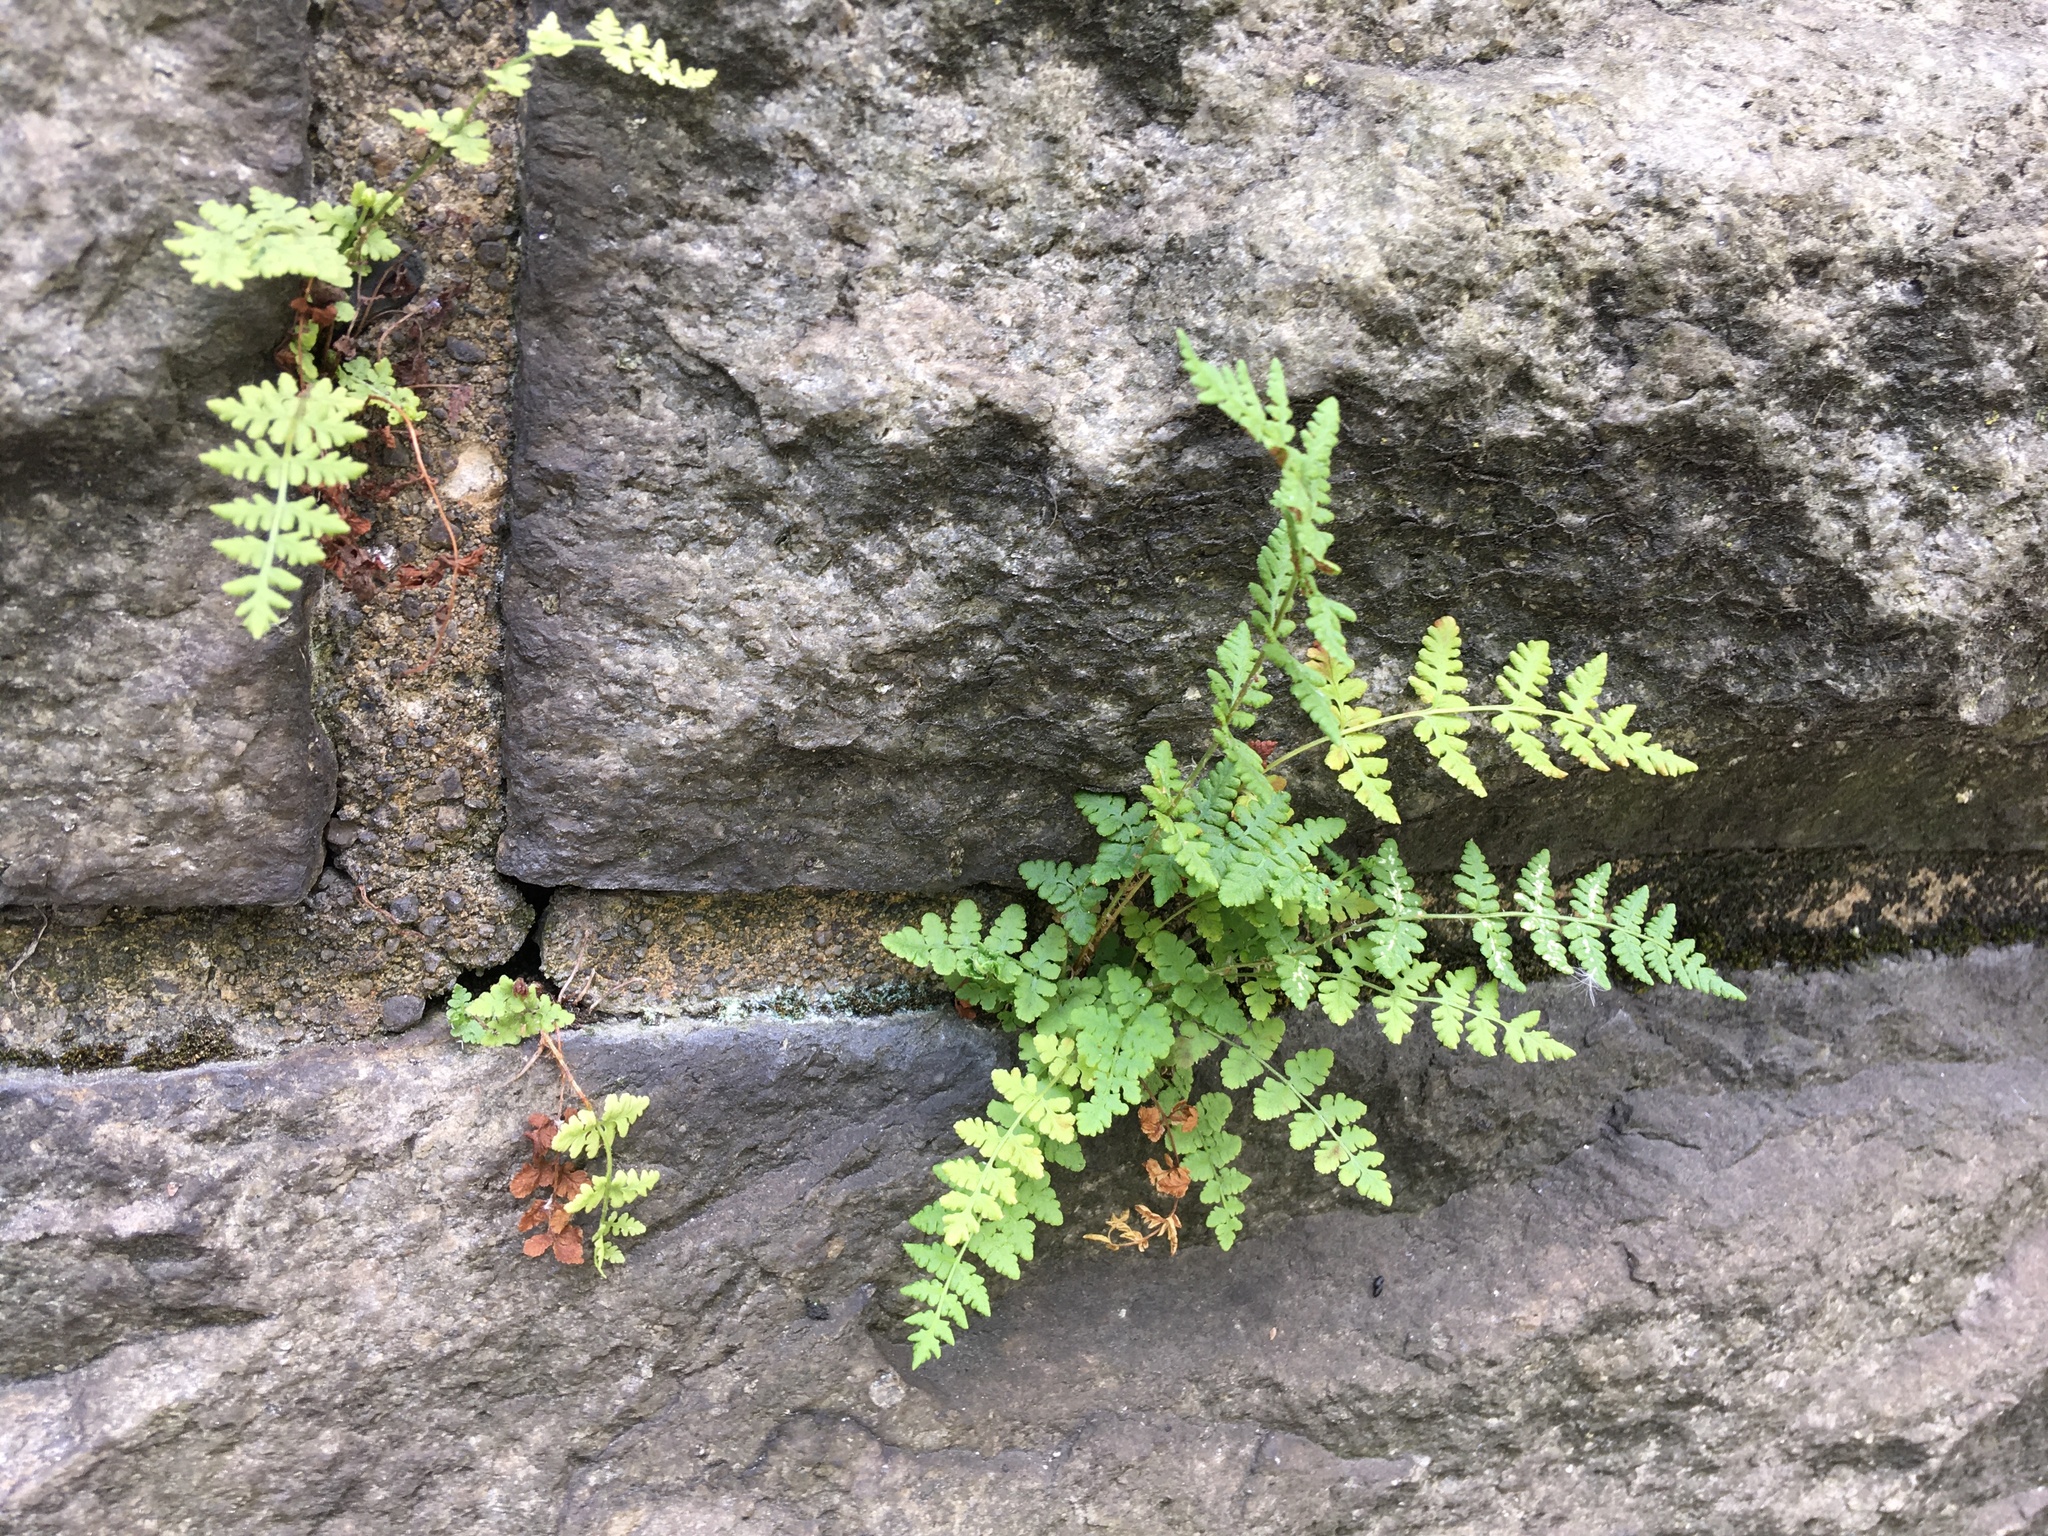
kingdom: Plantae
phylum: Tracheophyta
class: Polypodiopsida
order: Polypodiales
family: Woodsiaceae
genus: Physematium
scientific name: Physematium obtusum
